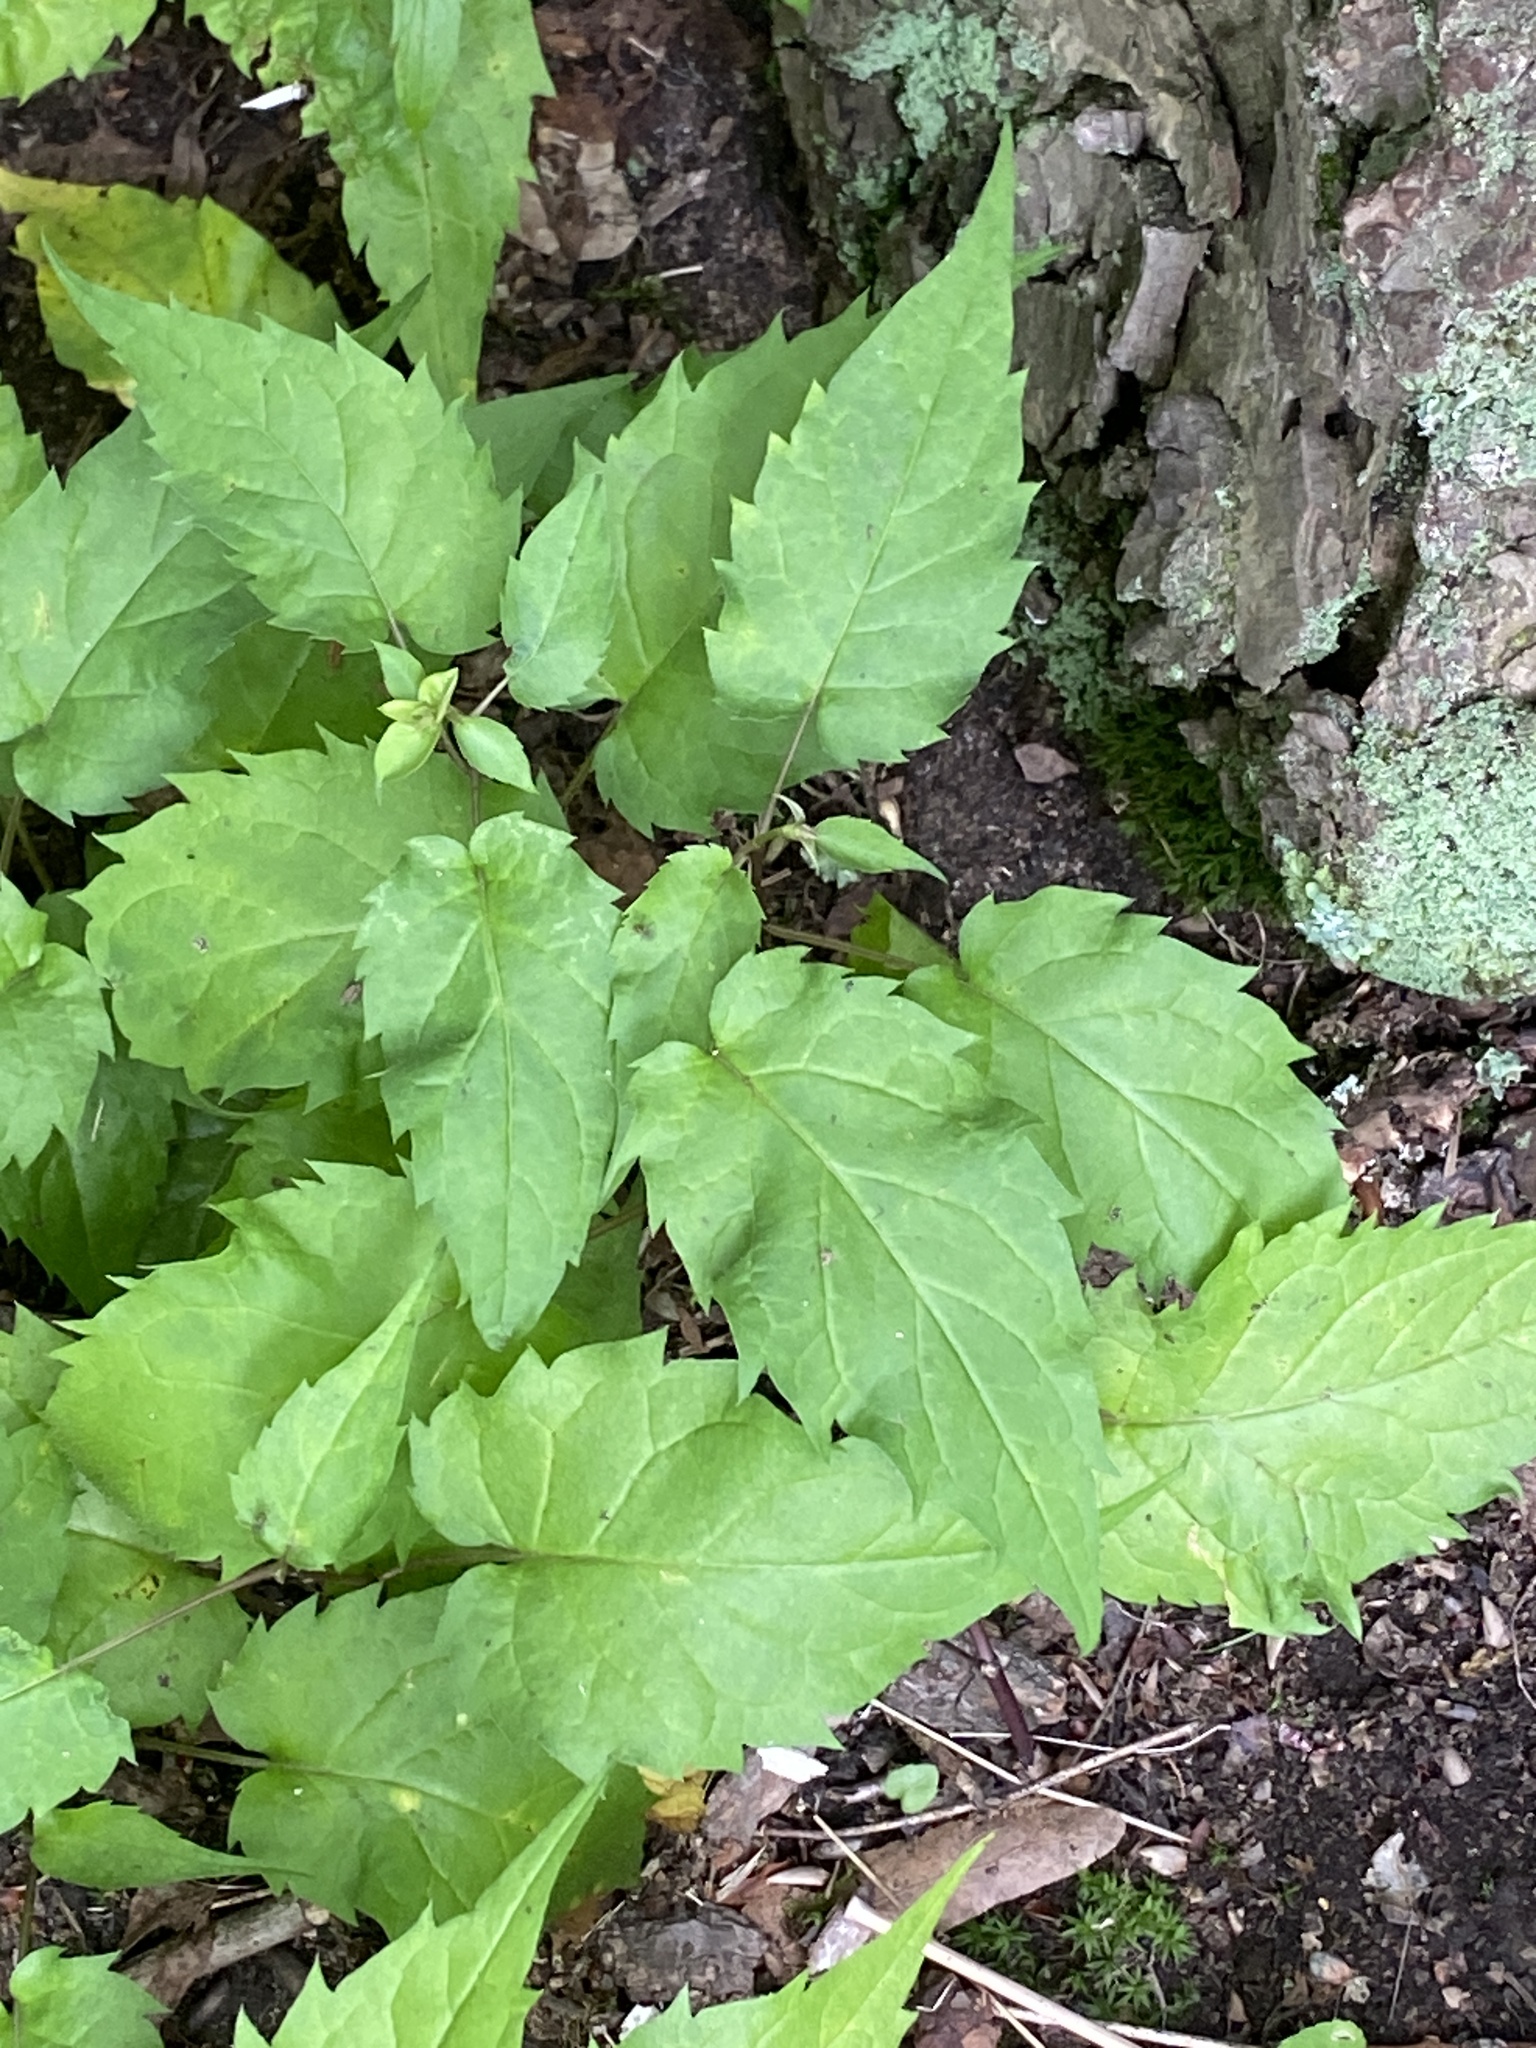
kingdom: Plantae
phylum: Tracheophyta
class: Magnoliopsida
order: Asterales
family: Asteraceae
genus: Eurybia
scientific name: Eurybia divaricata
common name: White wood aster
